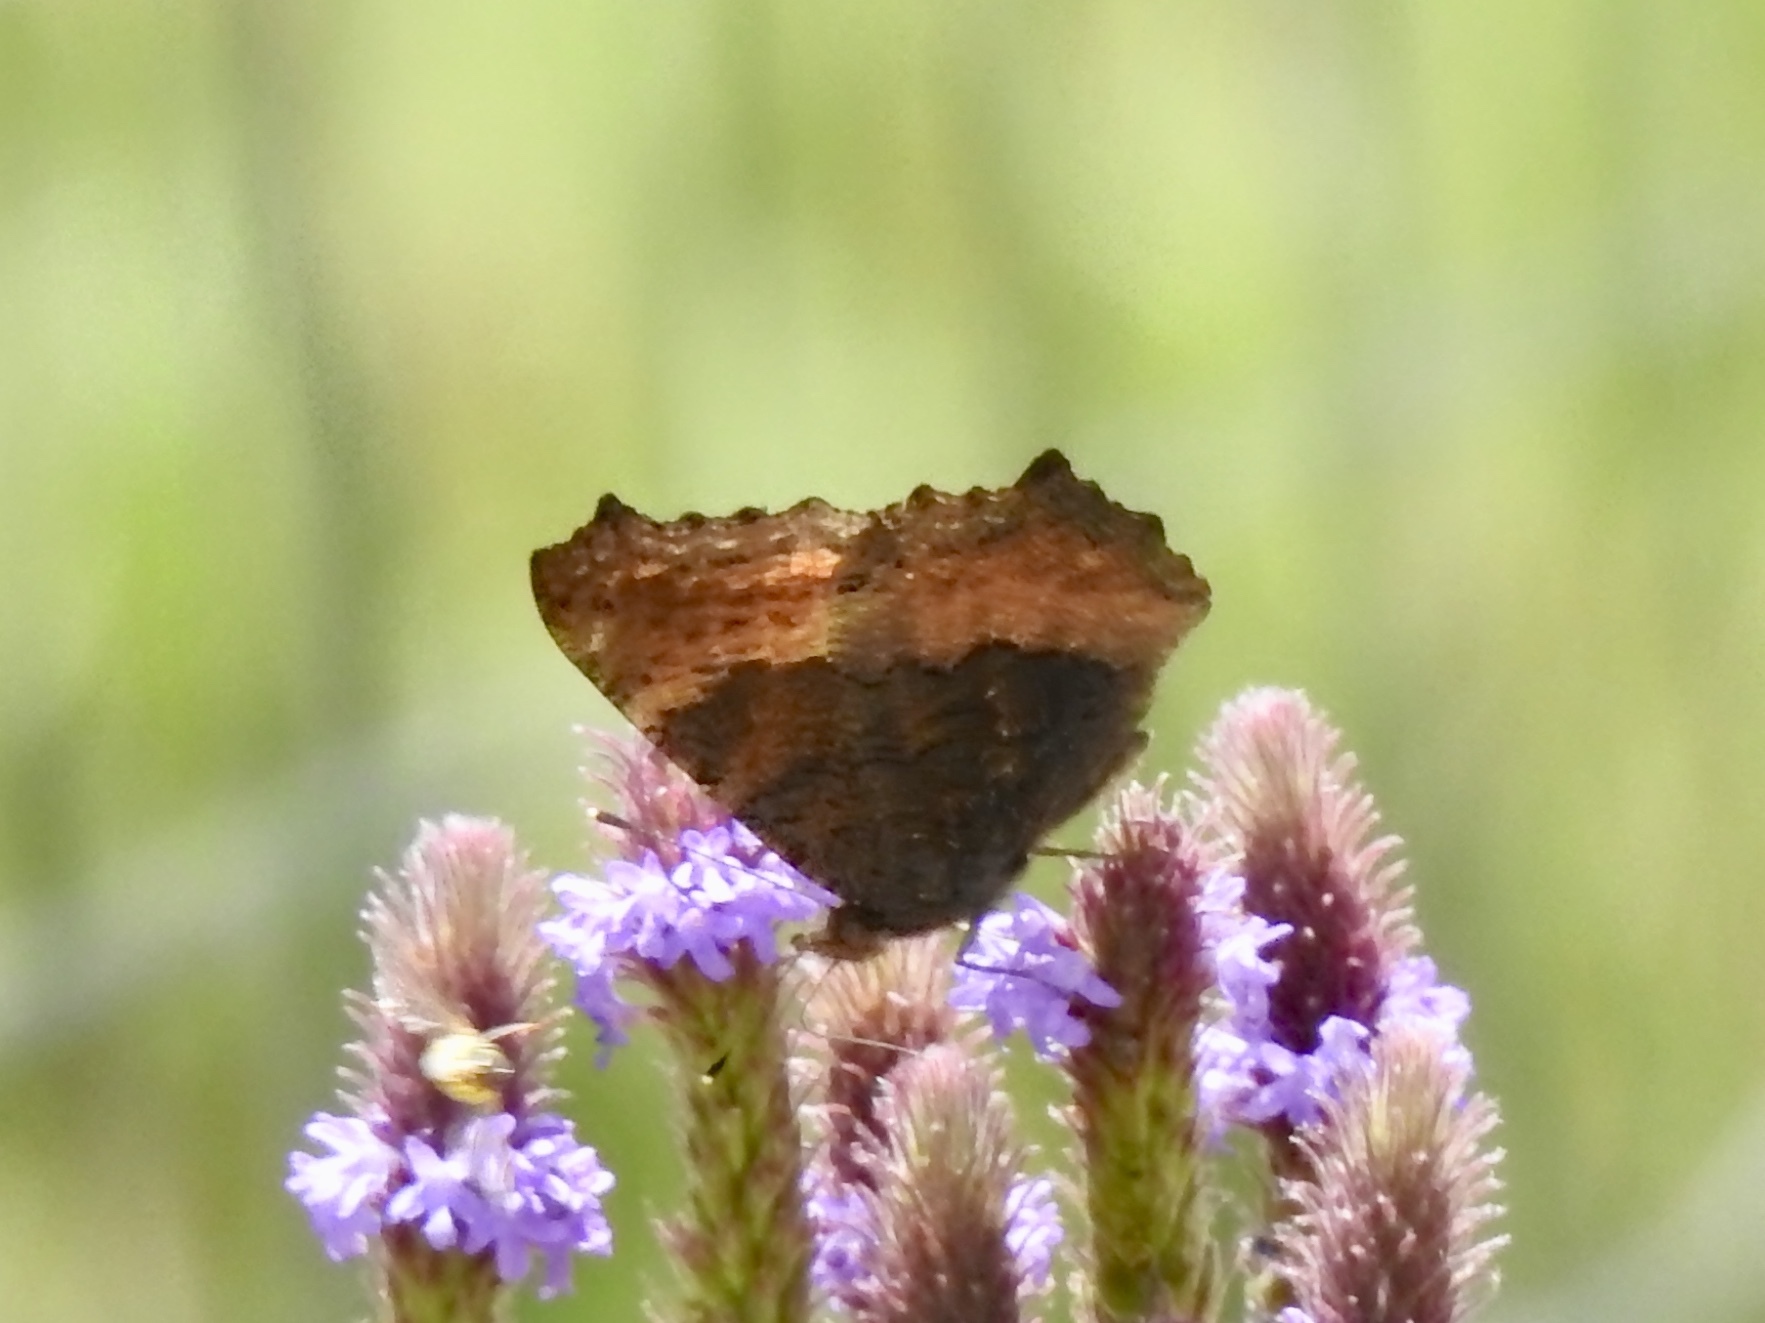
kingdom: Animalia
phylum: Arthropoda
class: Insecta
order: Lepidoptera
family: Nymphalidae
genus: Aglais
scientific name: Aglais milberti
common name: Milbert's tortoiseshell
